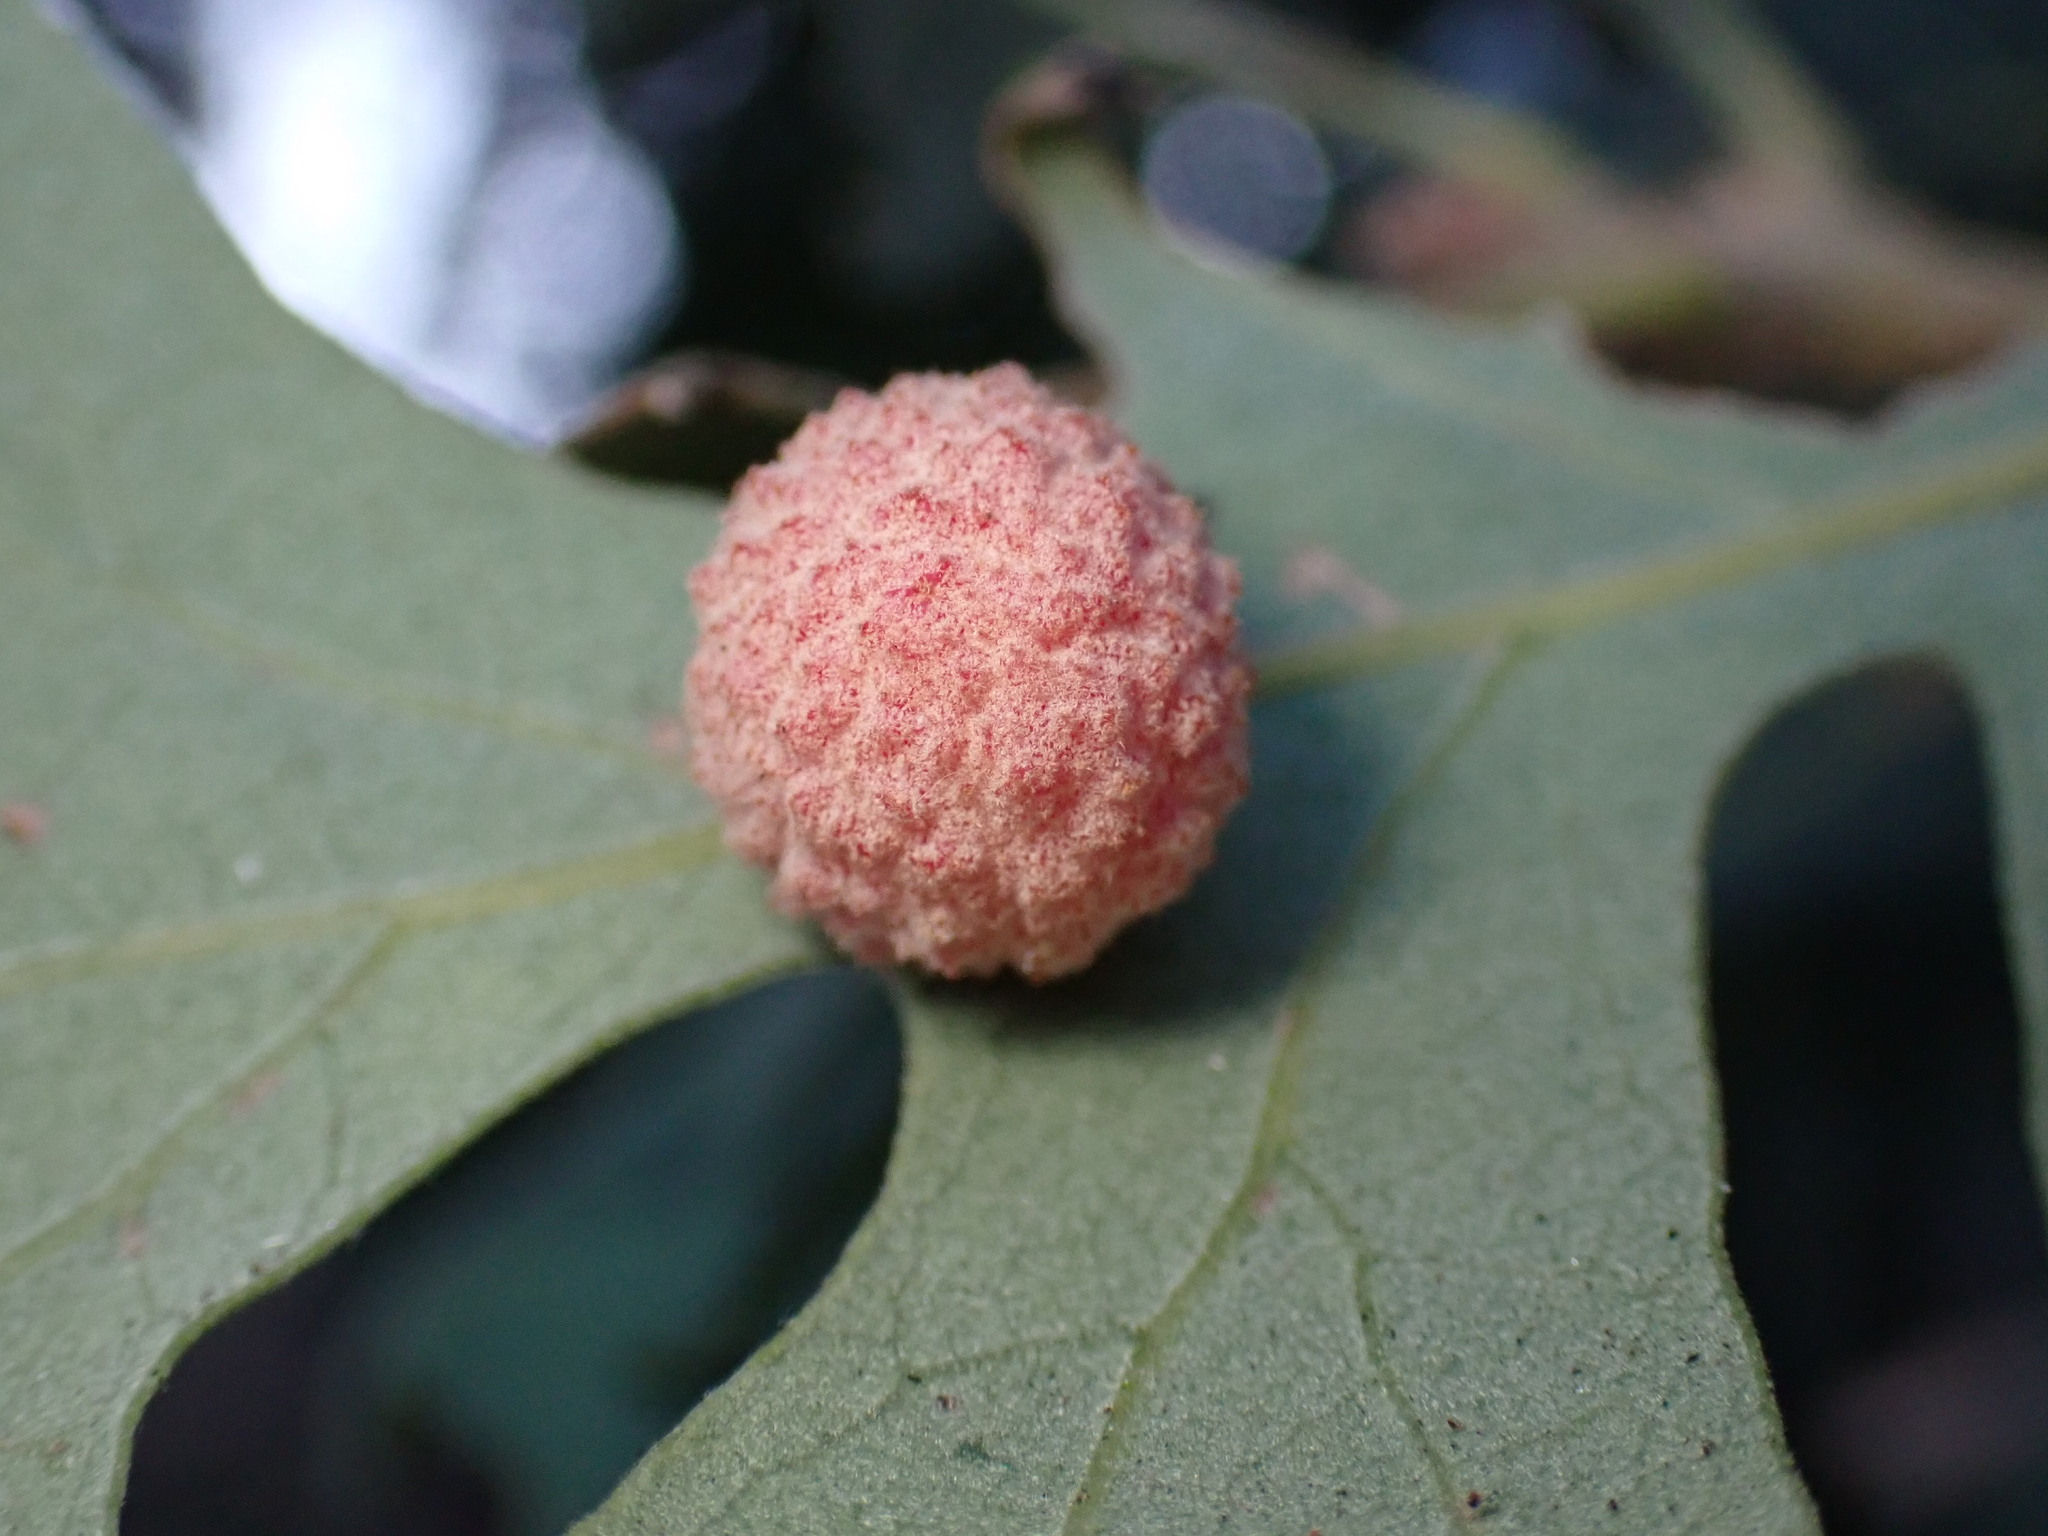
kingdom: Animalia
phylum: Arthropoda
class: Insecta
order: Hymenoptera
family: Cynipidae
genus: Cynips
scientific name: Cynips conspicua
